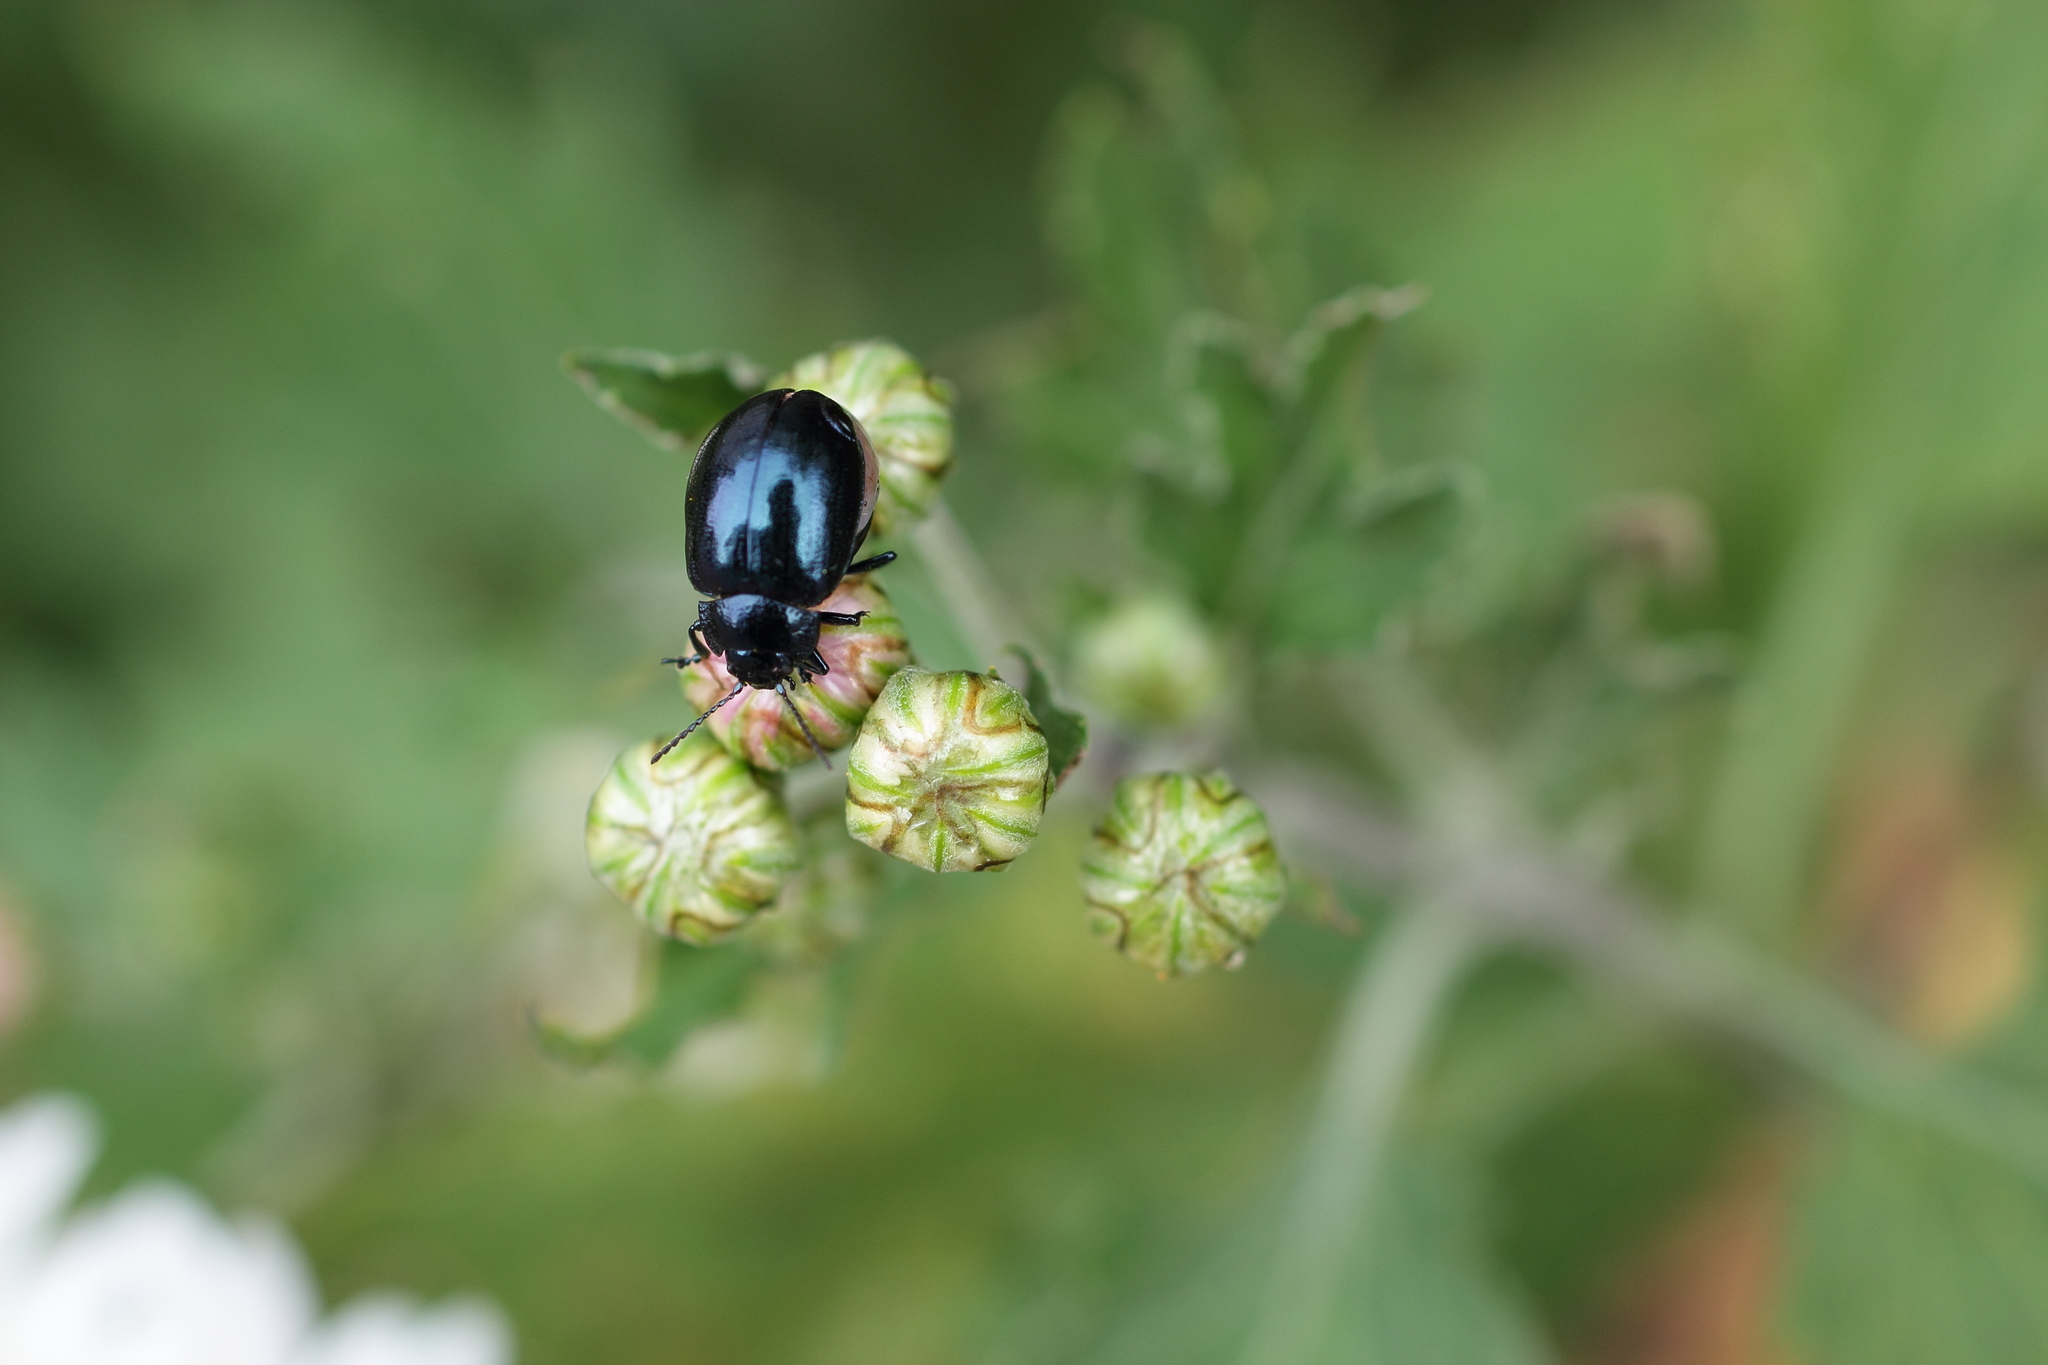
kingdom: Animalia
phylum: Arthropoda
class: Insecta
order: Coleoptera
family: Chrysomelidae
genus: Chrysolina
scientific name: Chrysolina aurichalcea
